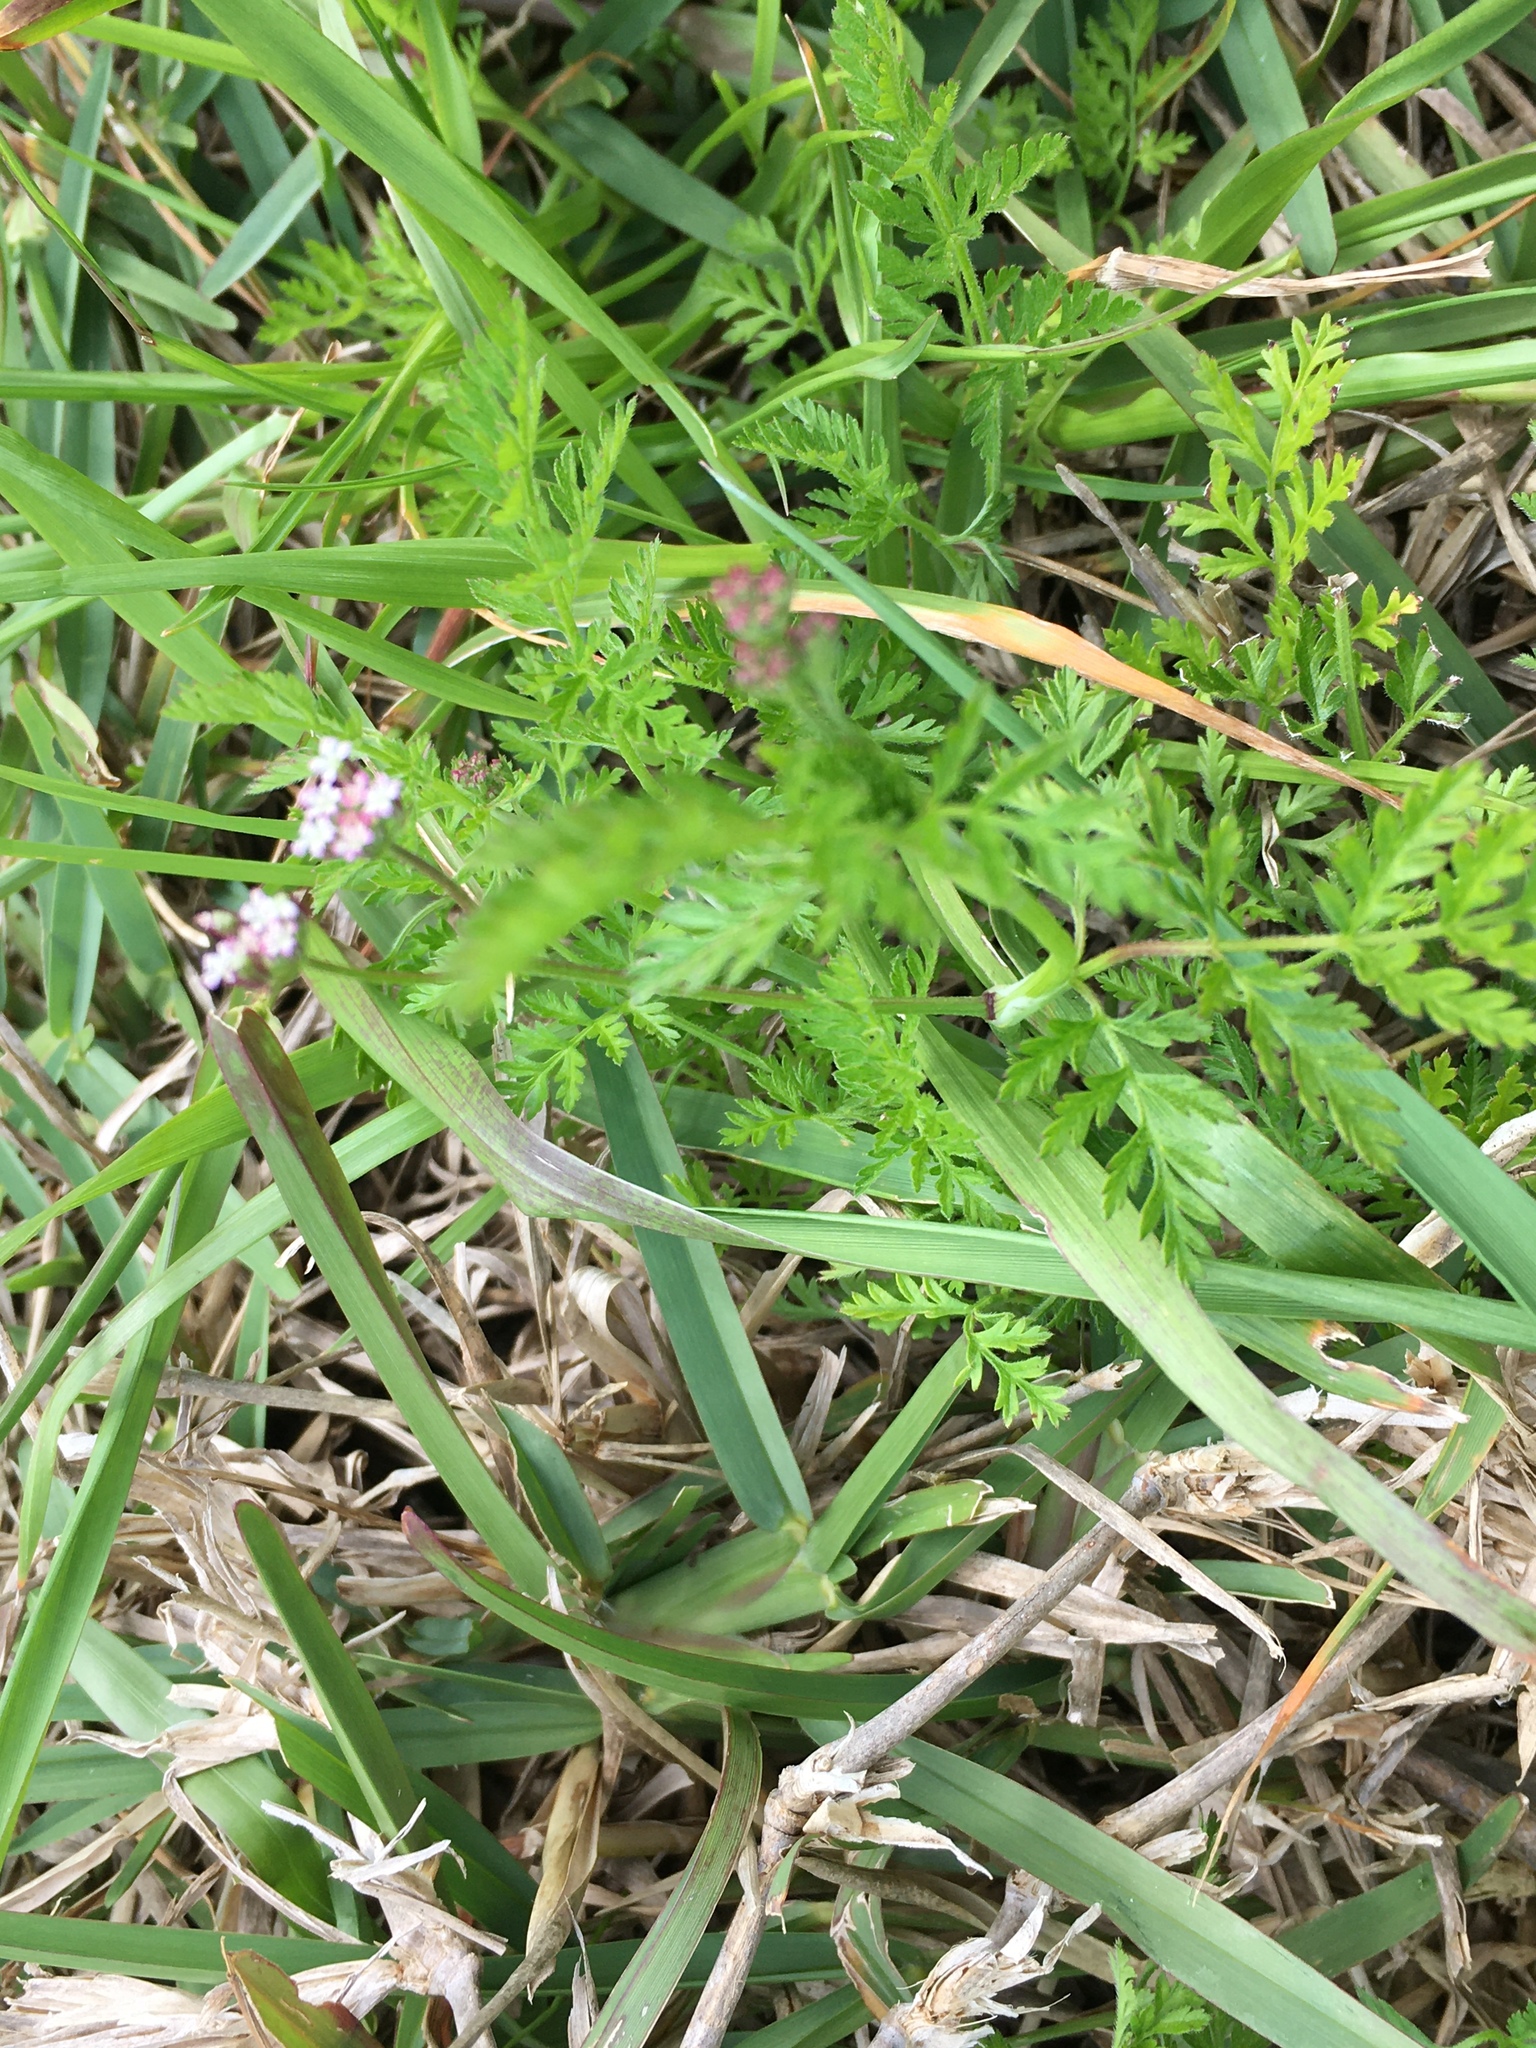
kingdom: Plantae
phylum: Tracheophyta
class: Magnoliopsida
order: Apiales
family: Apiaceae
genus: Torilis
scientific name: Torilis africana
